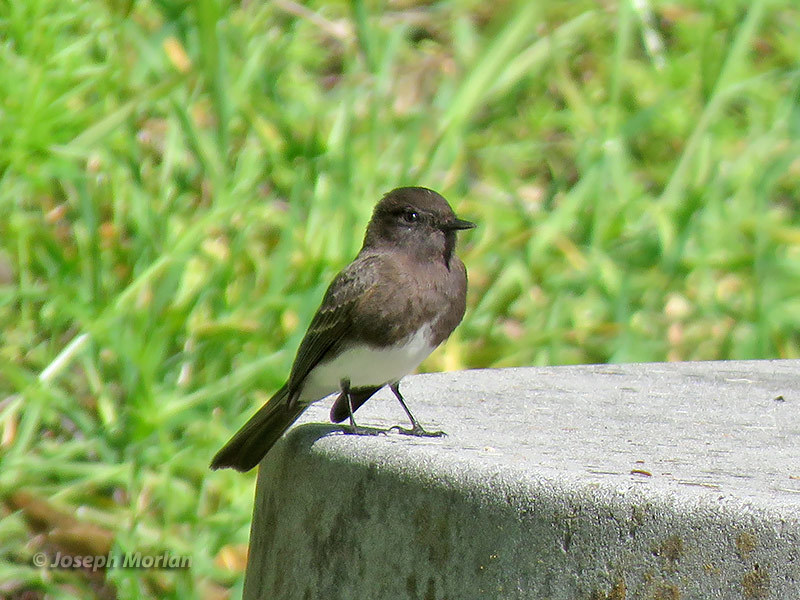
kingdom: Animalia
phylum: Chordata
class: Aves
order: Passeriformes
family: Tyrannidae
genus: Sayornis
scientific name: Sayornis nigricans
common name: Black phoebe
